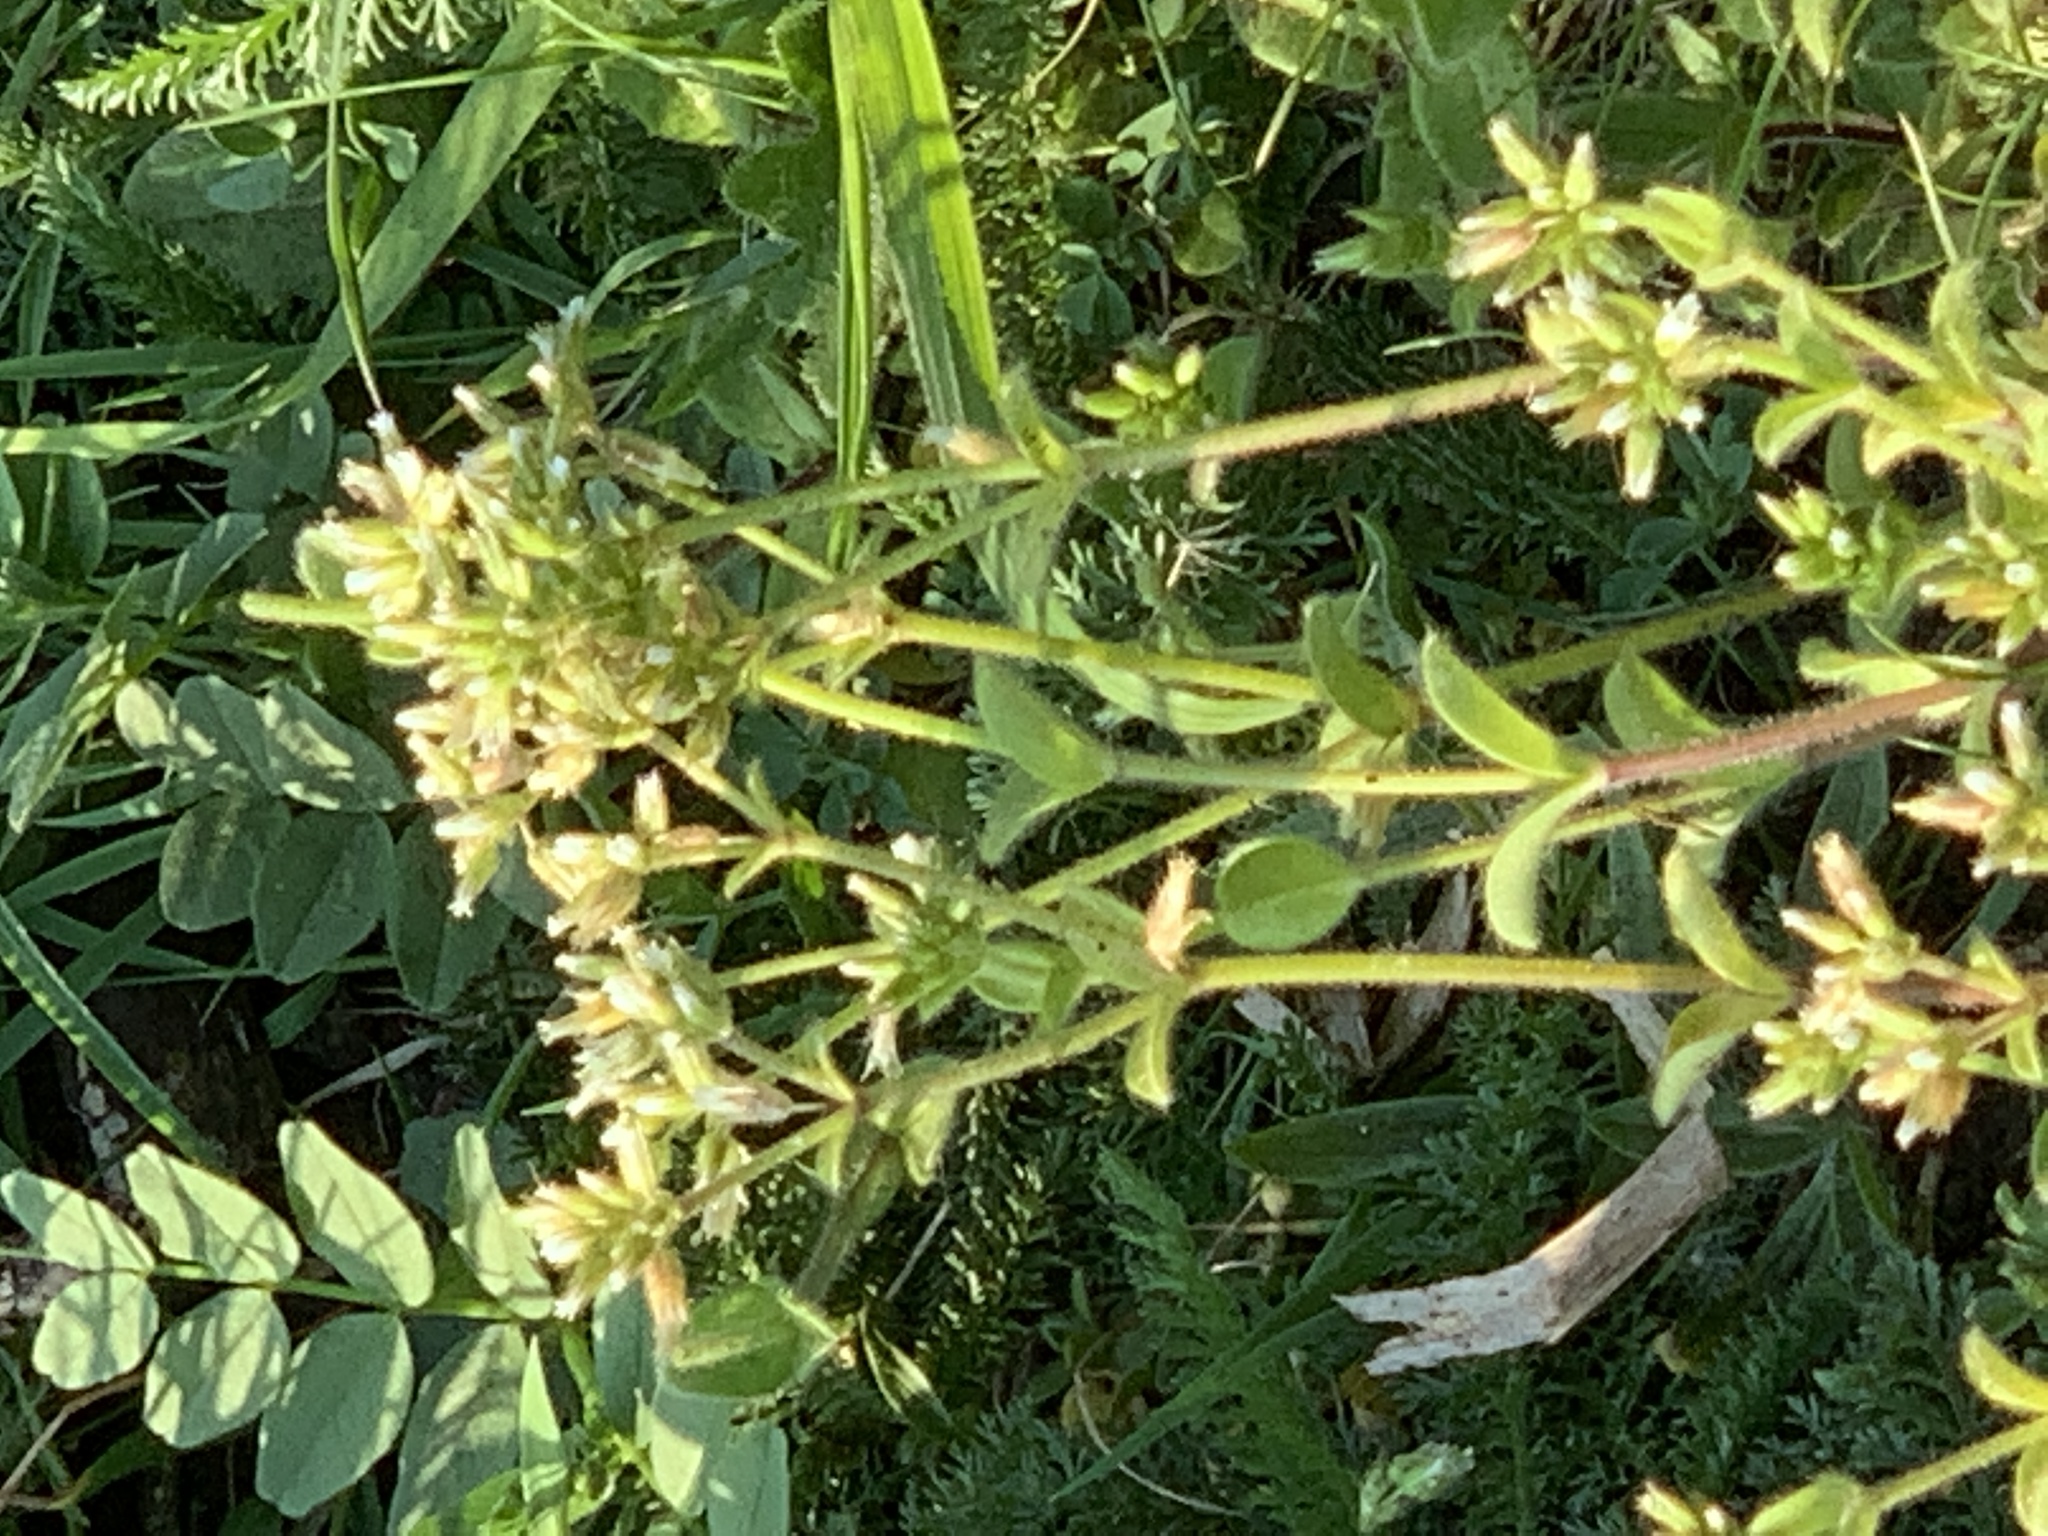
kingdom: Plantae
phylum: Tracheophyta
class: Magnoliopsida
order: Caryophyllales
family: Caryophyllaceae
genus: Cerastium
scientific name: Cerastium glomeratum
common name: Sticky chickweed
